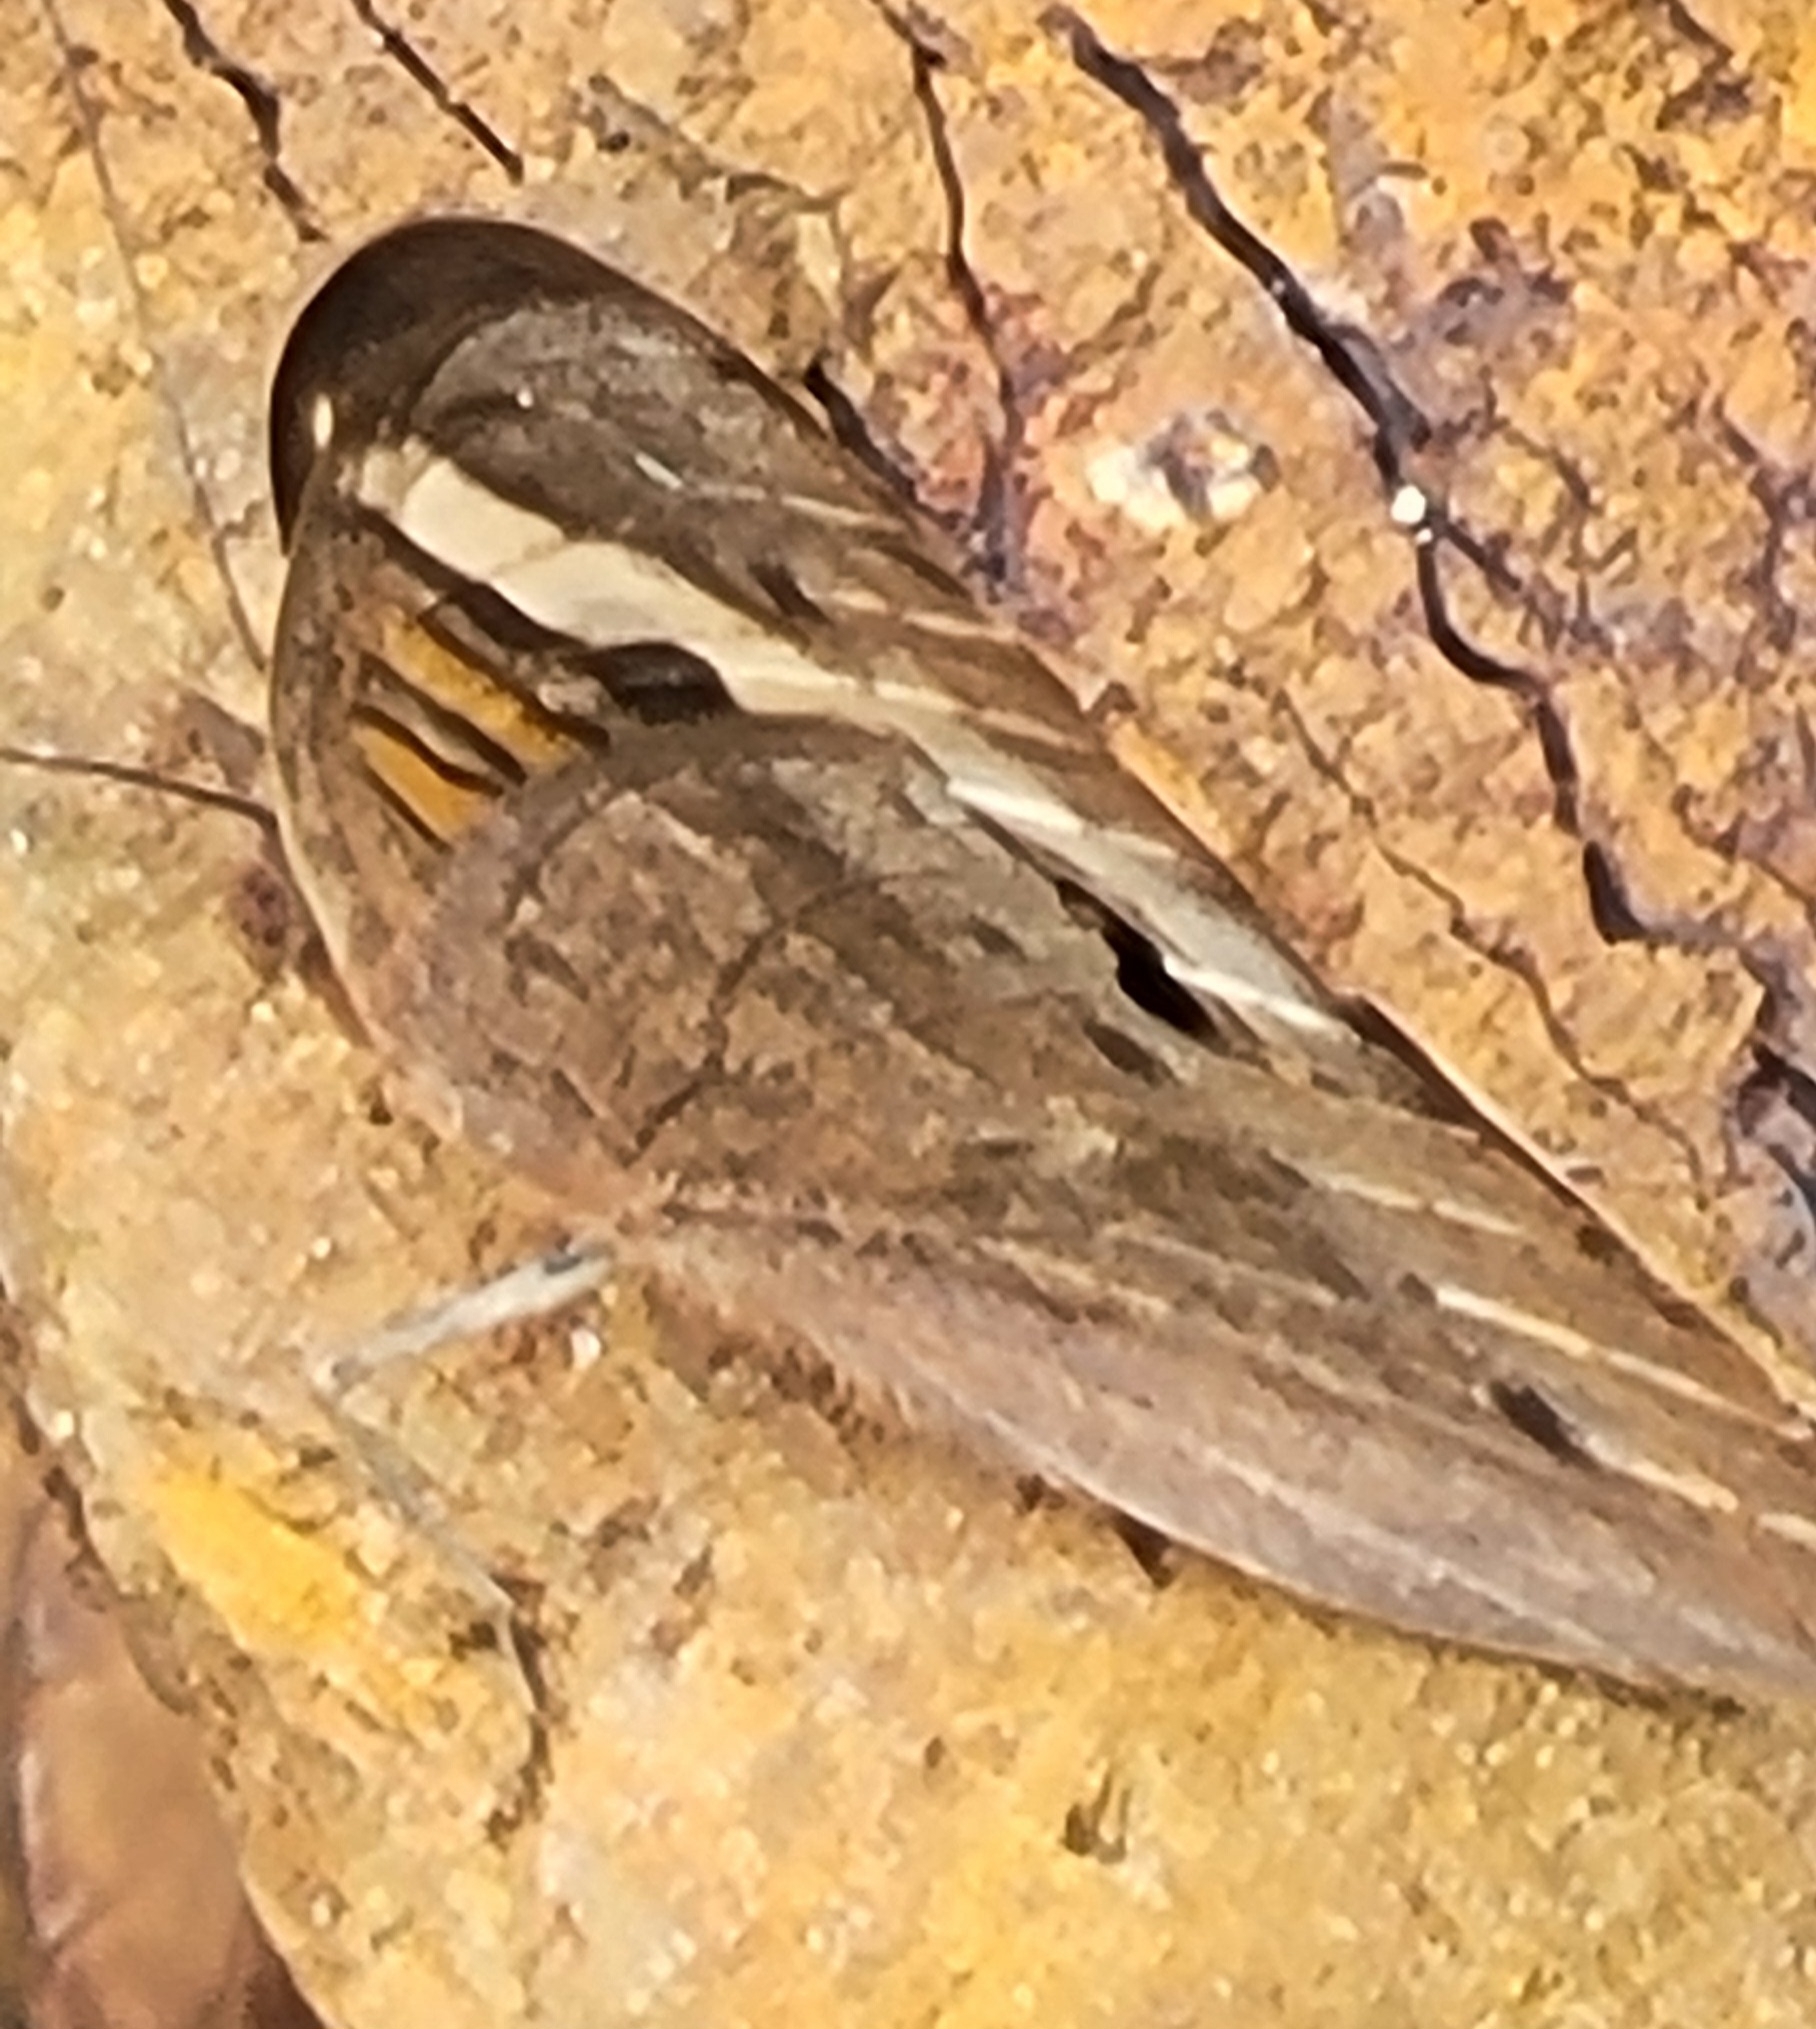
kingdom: Animalia
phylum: Arthropoda
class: Insecta
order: Lepidoptera
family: Nymphalidae
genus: Junonia
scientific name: Junonia coenia
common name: Common buckeye
